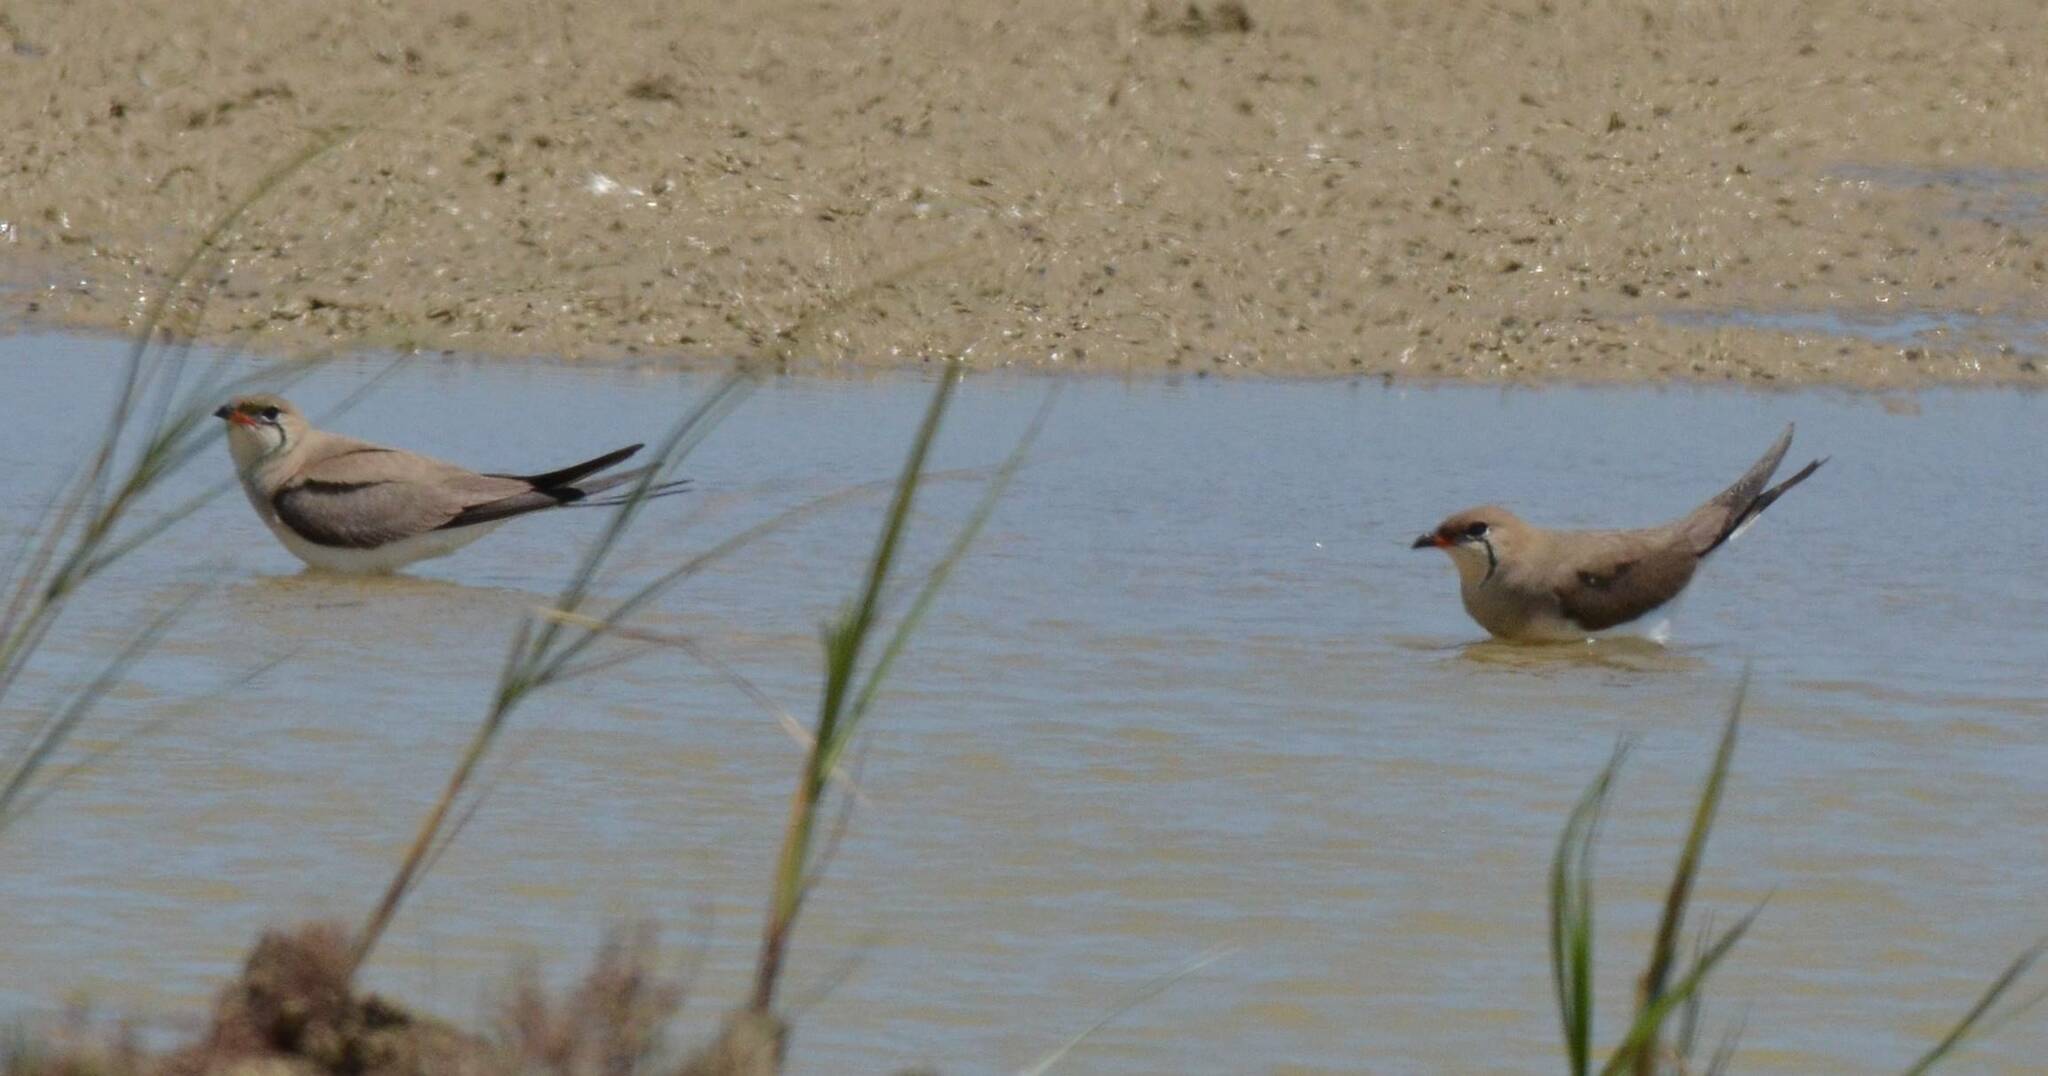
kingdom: Animalia
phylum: Chordata
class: Aves
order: Charadriiformes
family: Glareolidae
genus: Glareola
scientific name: Glareola pratincola
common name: Collared pratincole
